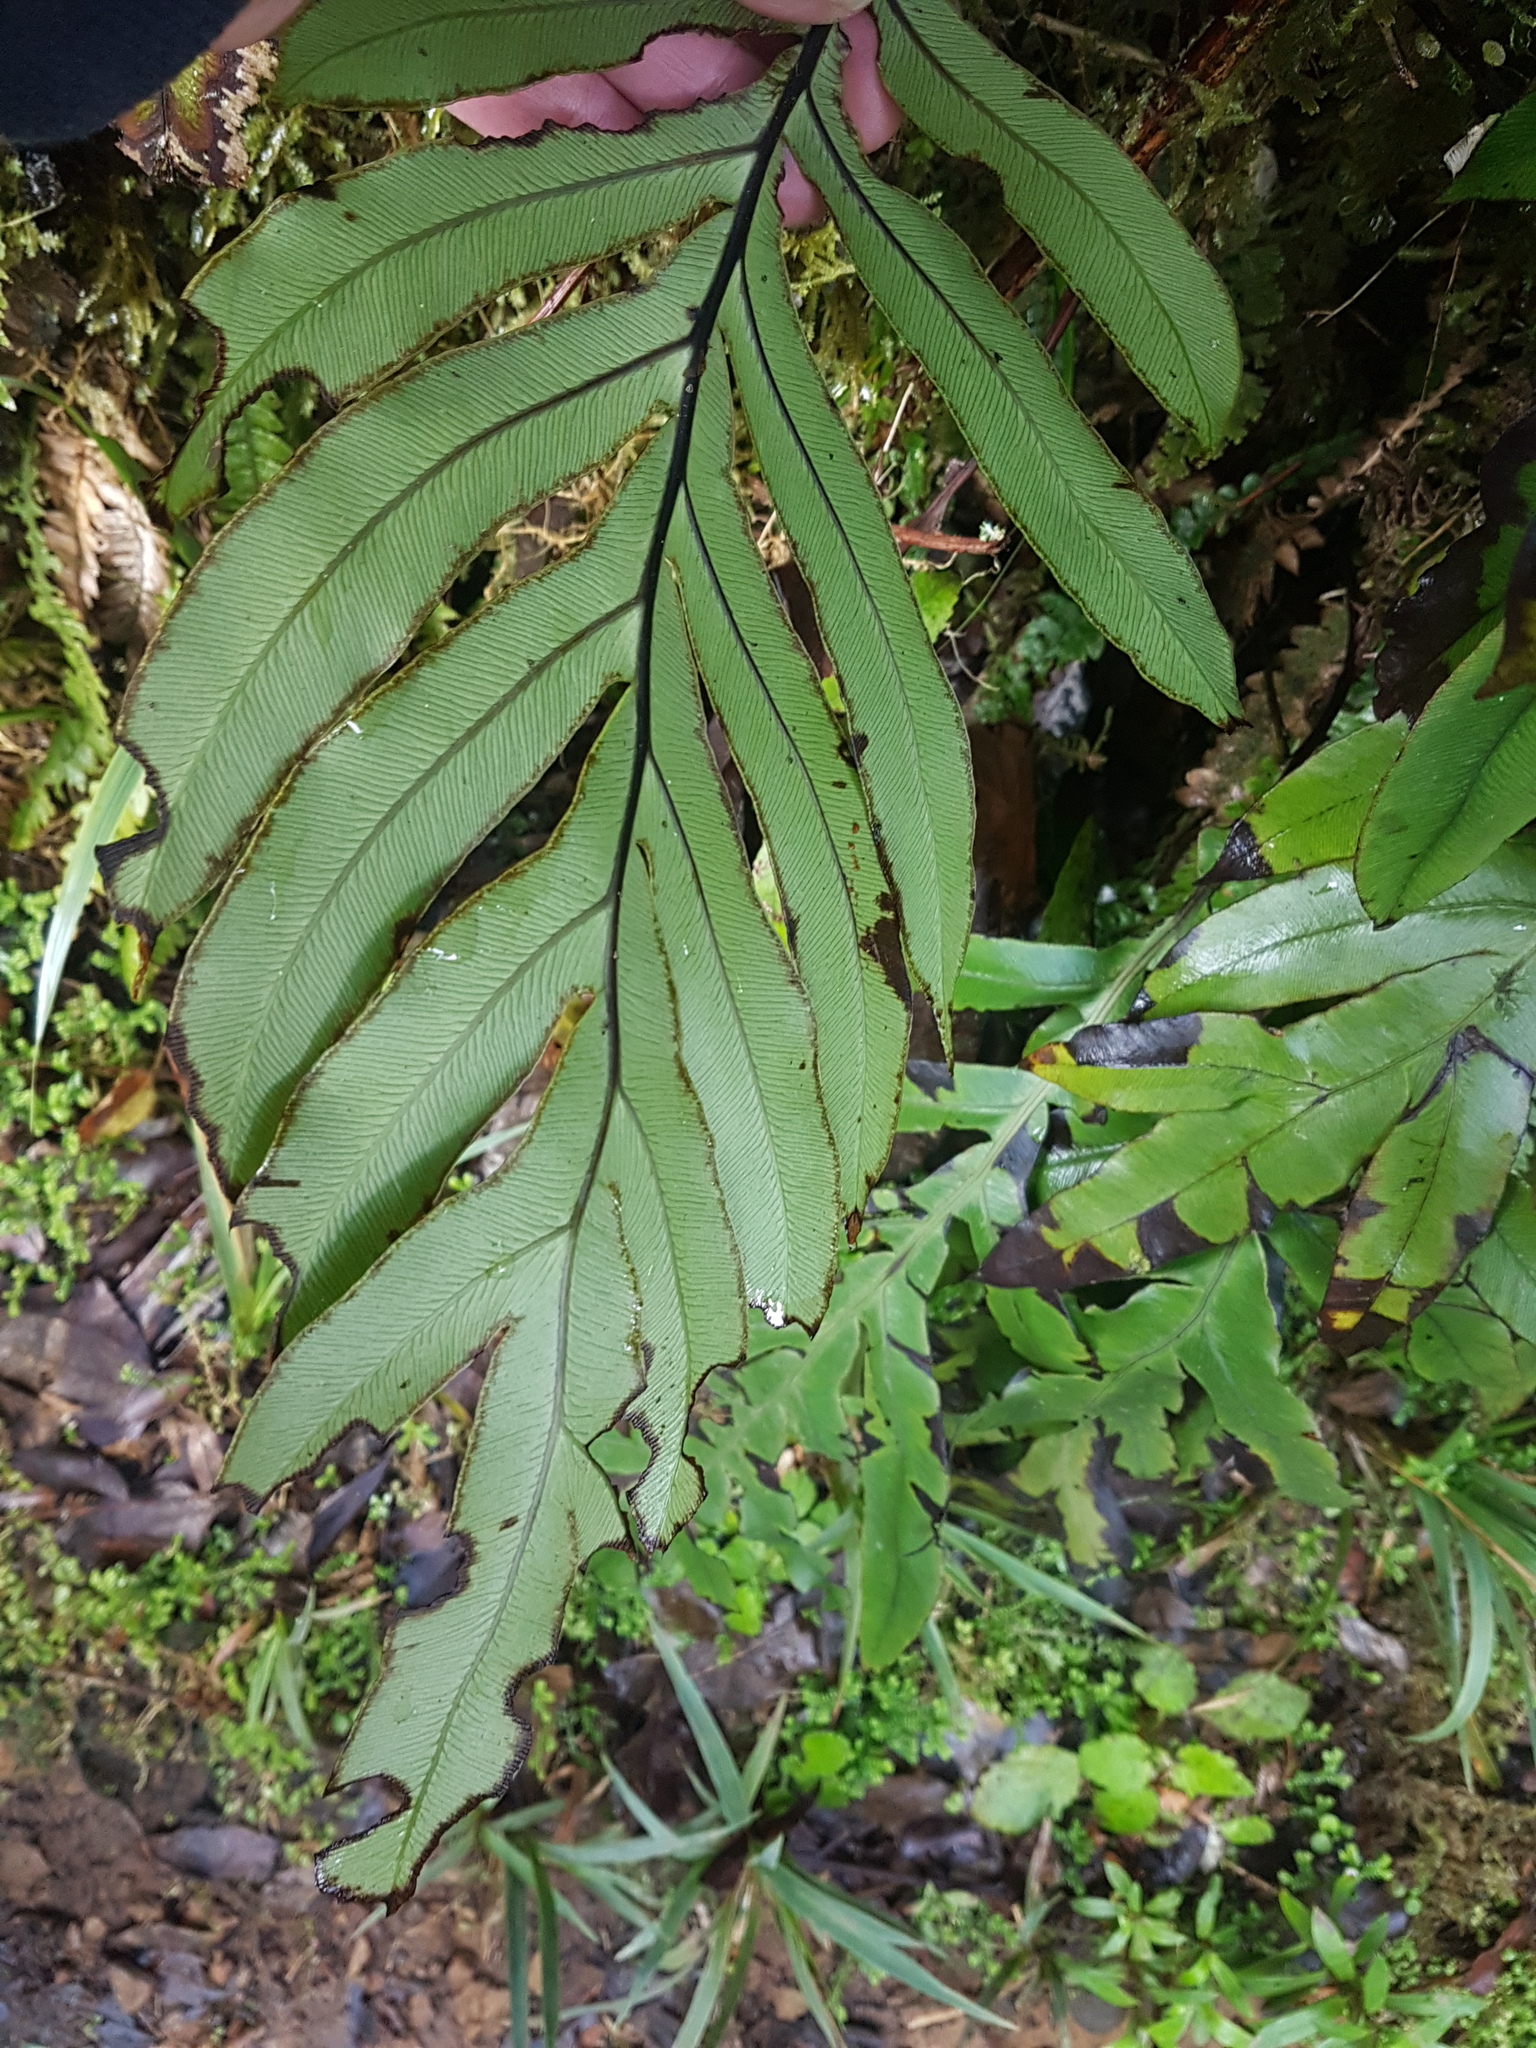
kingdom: Plantae
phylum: Tracheophyta
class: Polypodiopsida
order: Polypodiales
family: Blechnaceae
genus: Austroblechnum
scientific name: Austroblechnum colensoi
